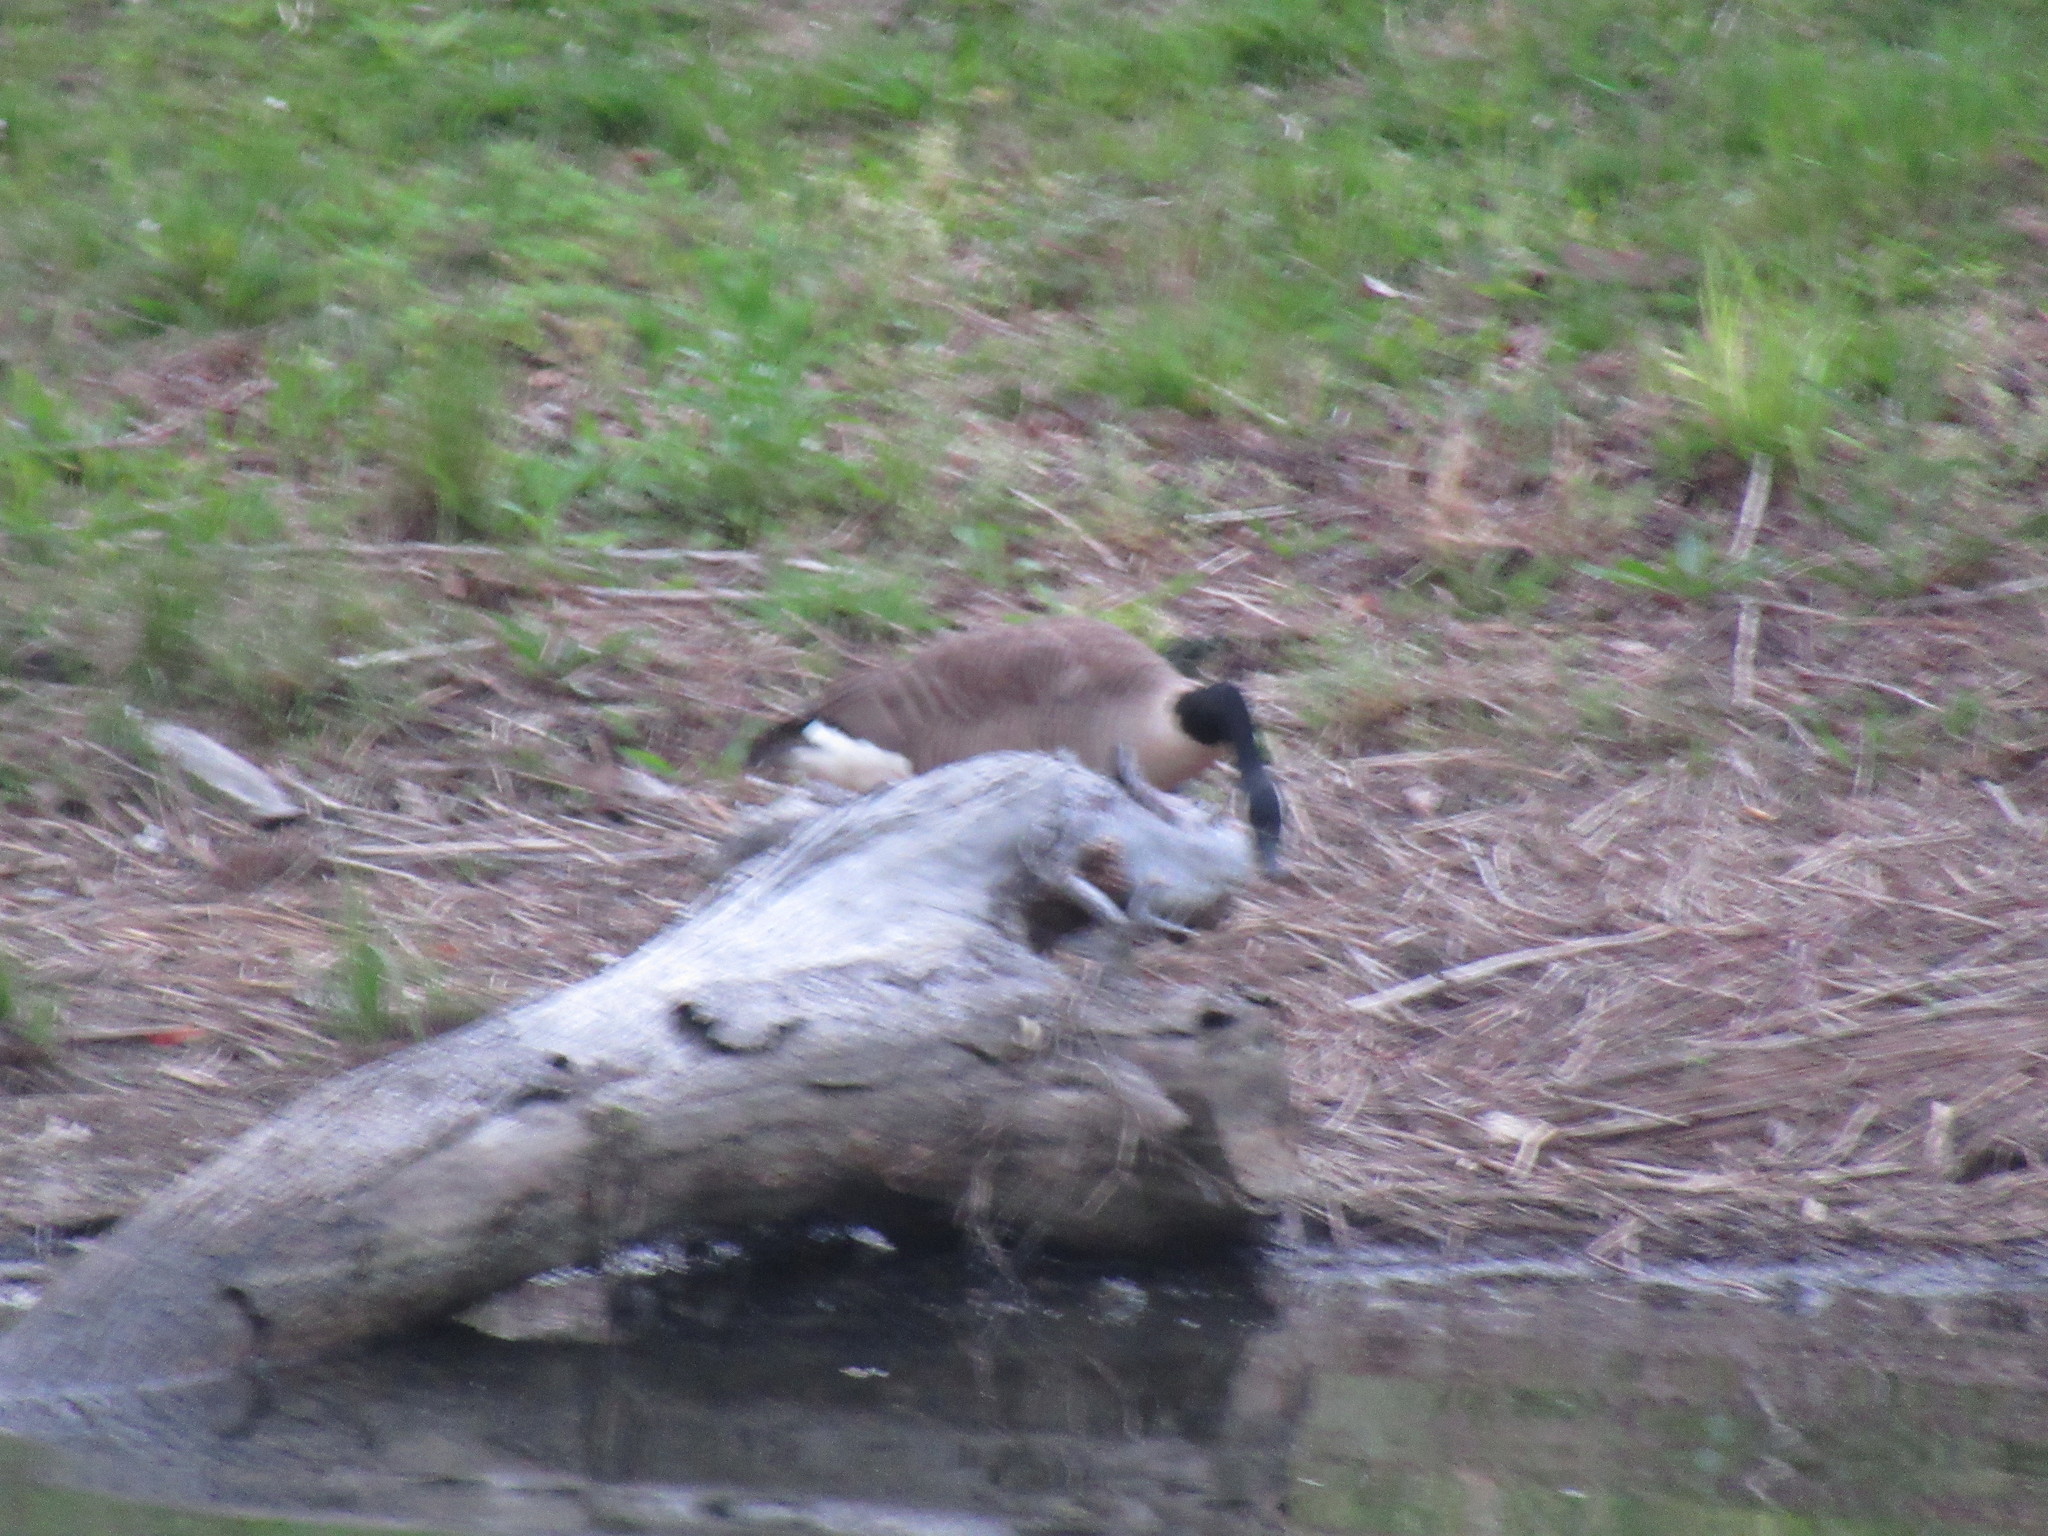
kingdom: Animalia
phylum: Chordata
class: Aves
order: Anseriformes
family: Anatidae
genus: Branta
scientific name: Branta canadensis
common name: Canada goose
